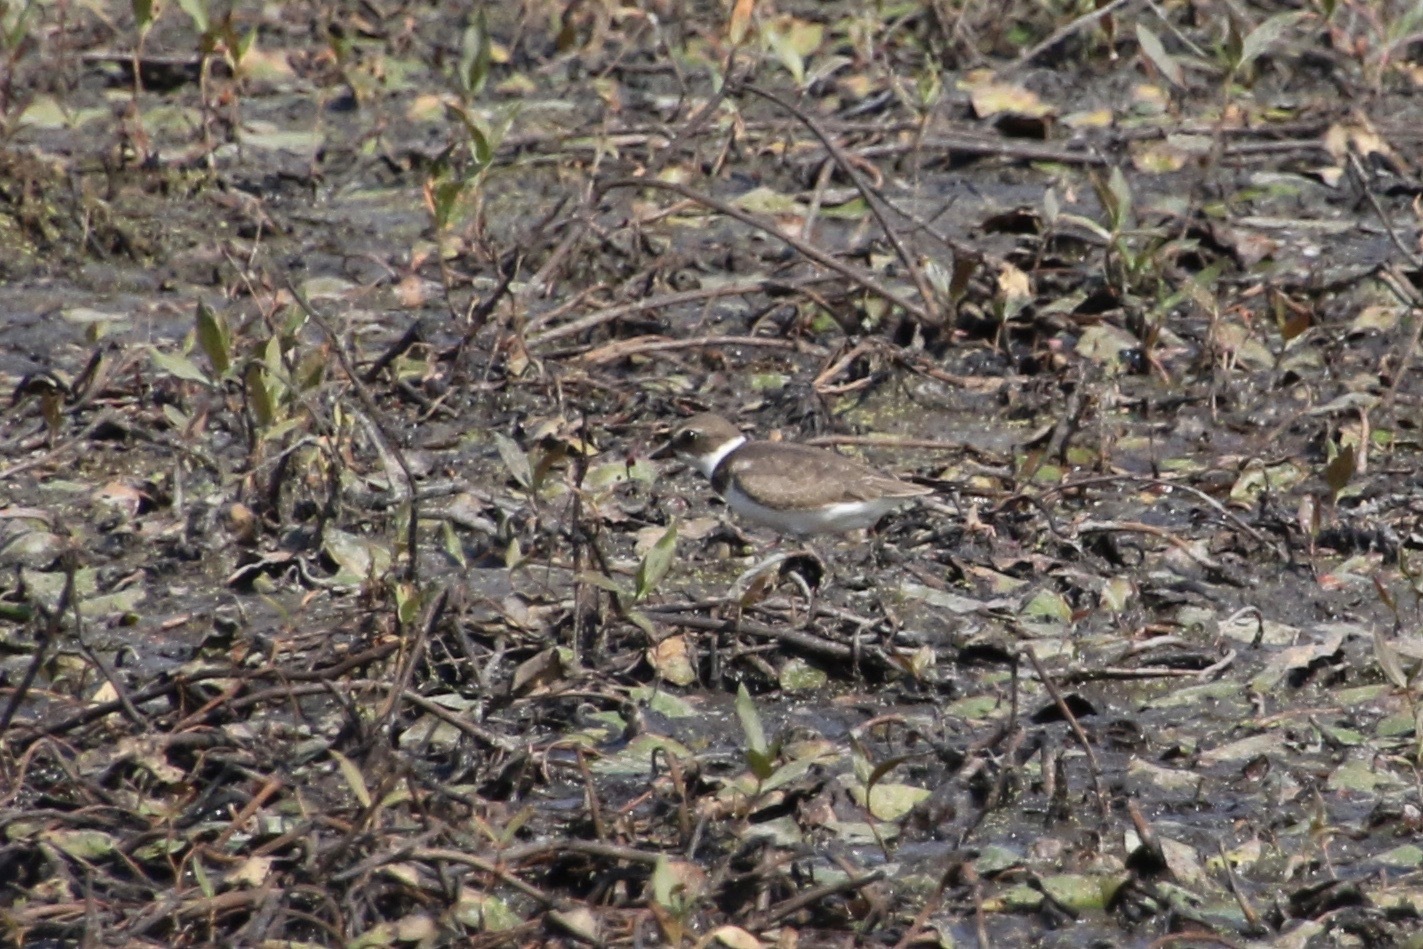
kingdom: Animalia
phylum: Chordata
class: Aves
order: Charadriiformes
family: Charadriidae
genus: Charadrius
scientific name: Charadrius semipalmatus
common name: Semipalmated plover
